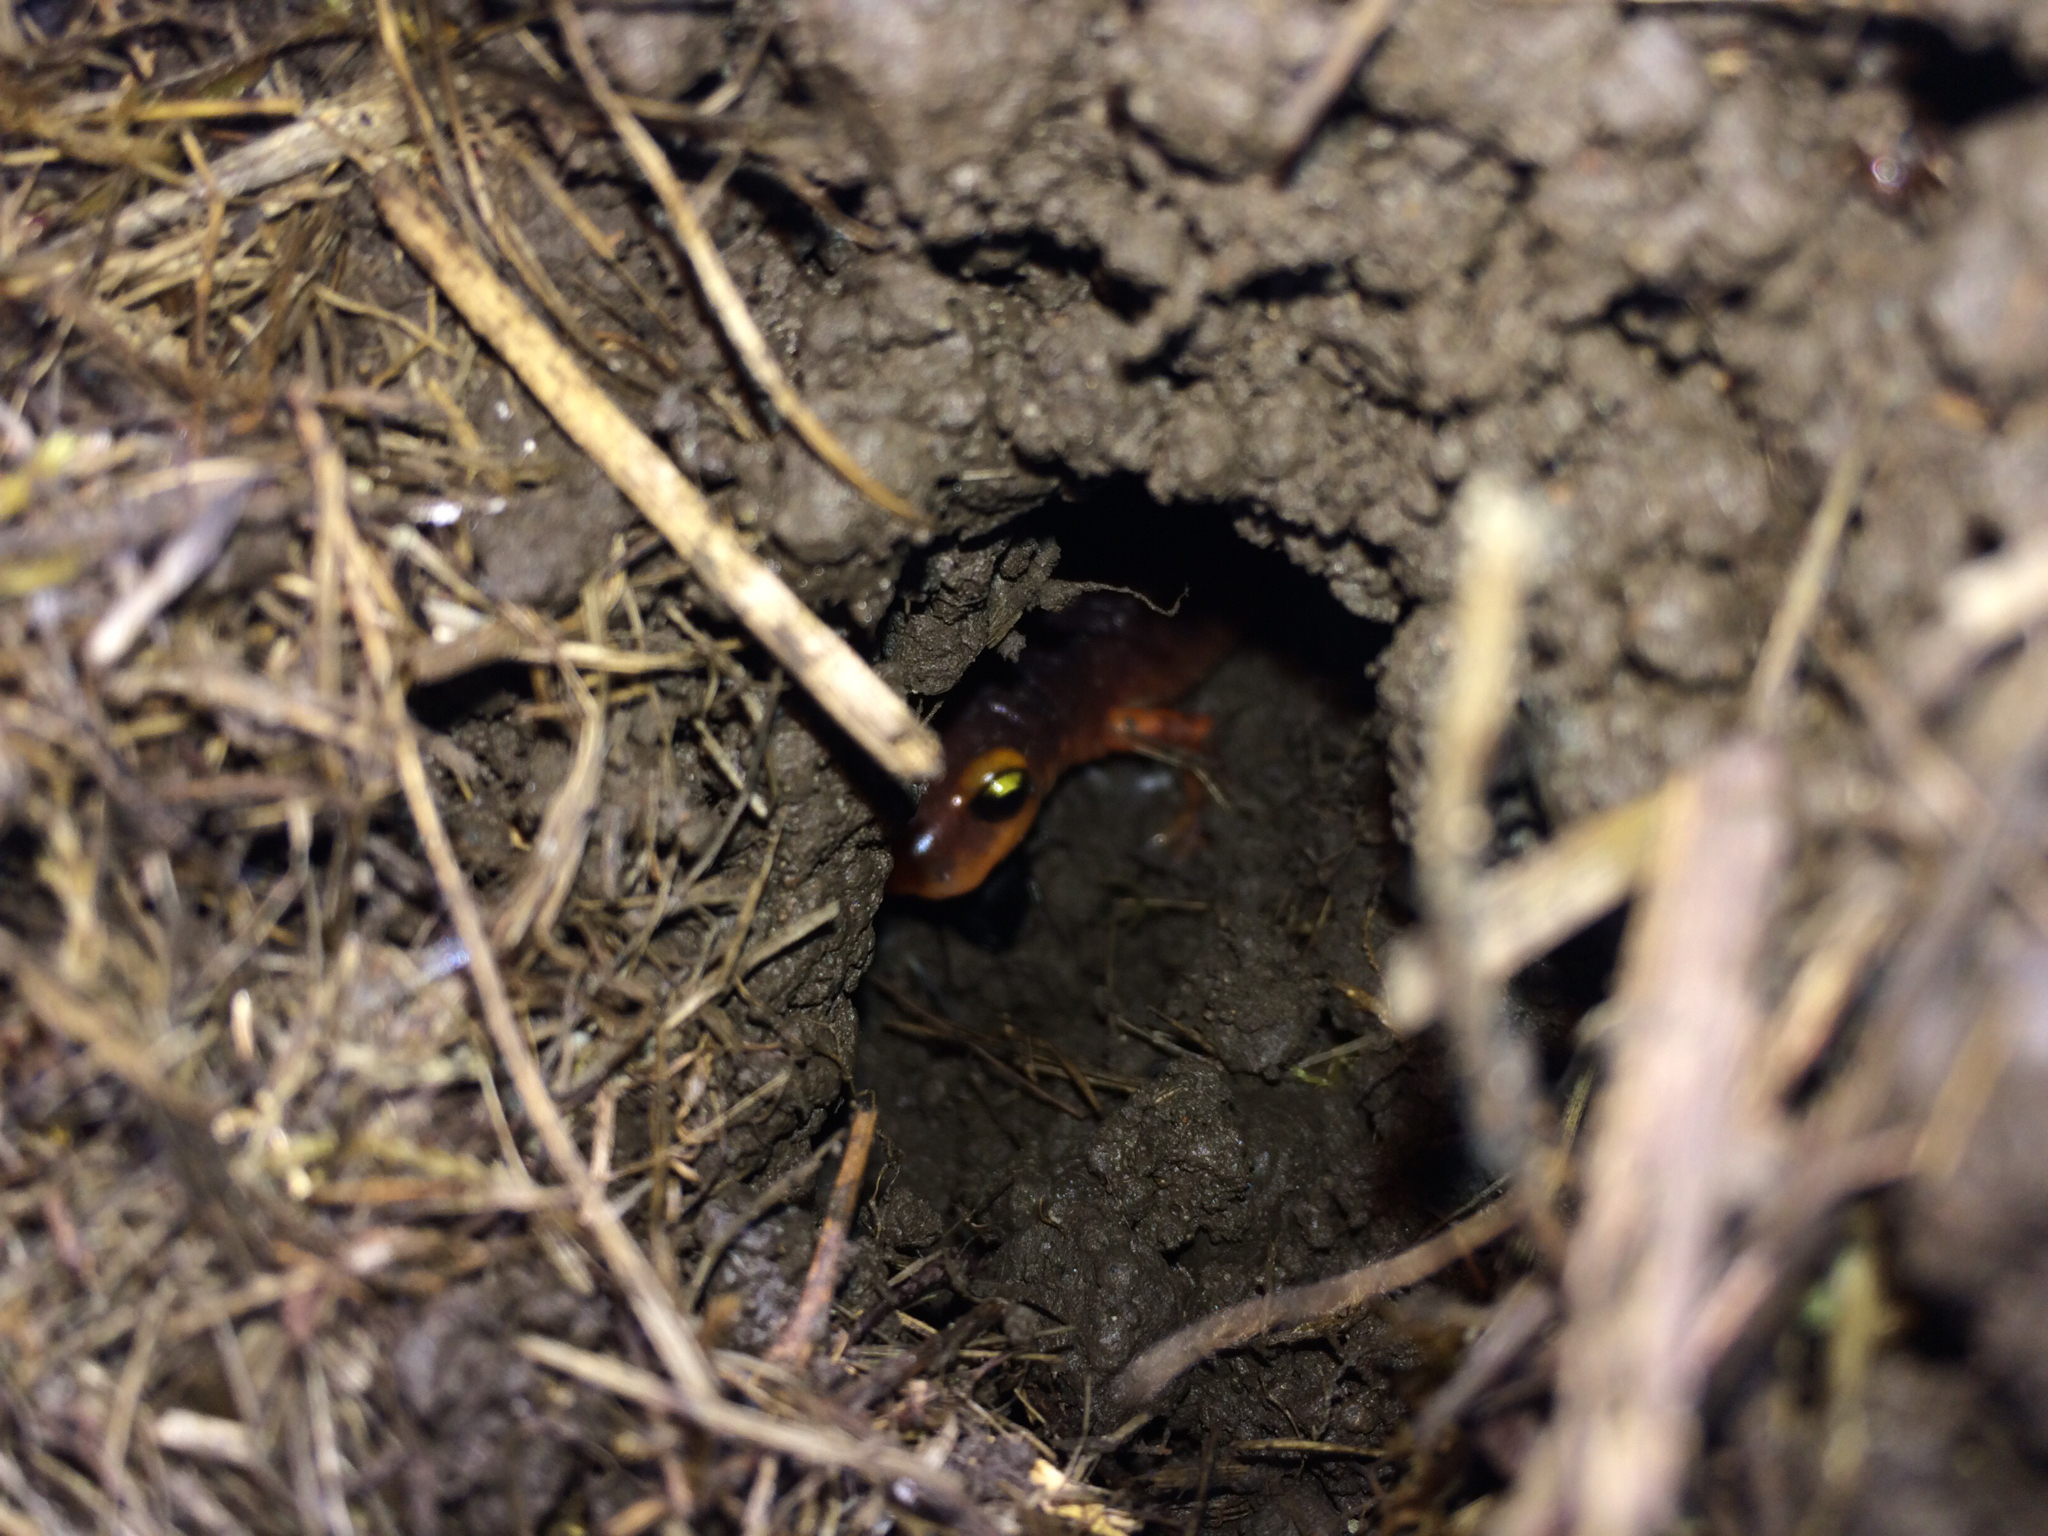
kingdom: Animalia
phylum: Chordata
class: Amphibia
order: Caudata
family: Plethodontidae
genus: Ensatina
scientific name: Ensatina eschscholtzii
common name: Ensatina
